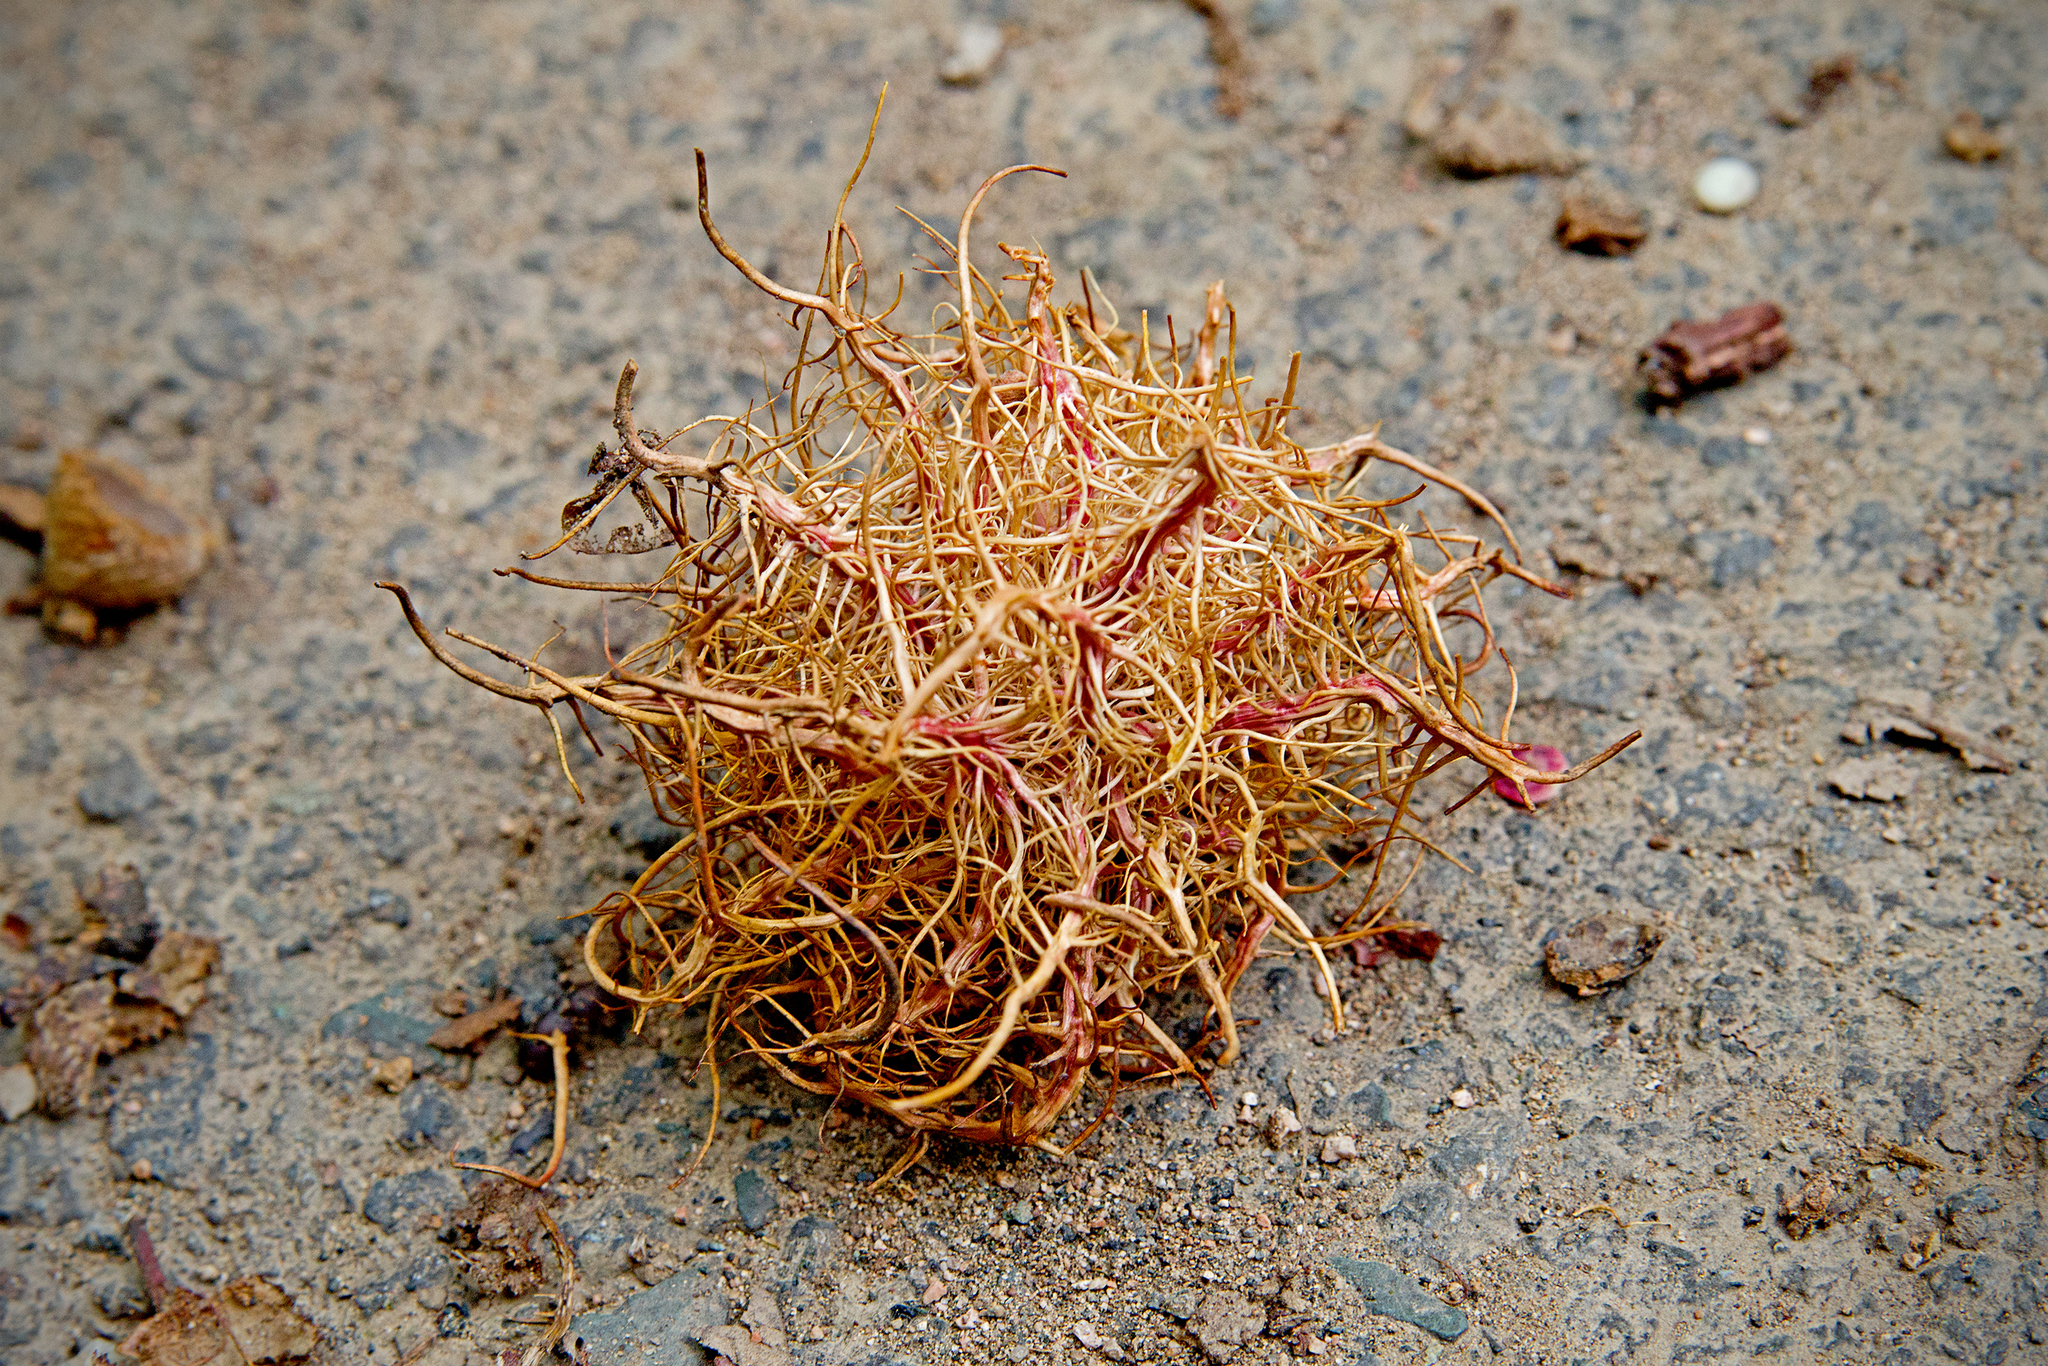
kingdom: Animalia
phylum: Arthropoda
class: Insecta
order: Hymenoptera
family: Cynipidae
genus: Andricus
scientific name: Andricus caputmedusae
